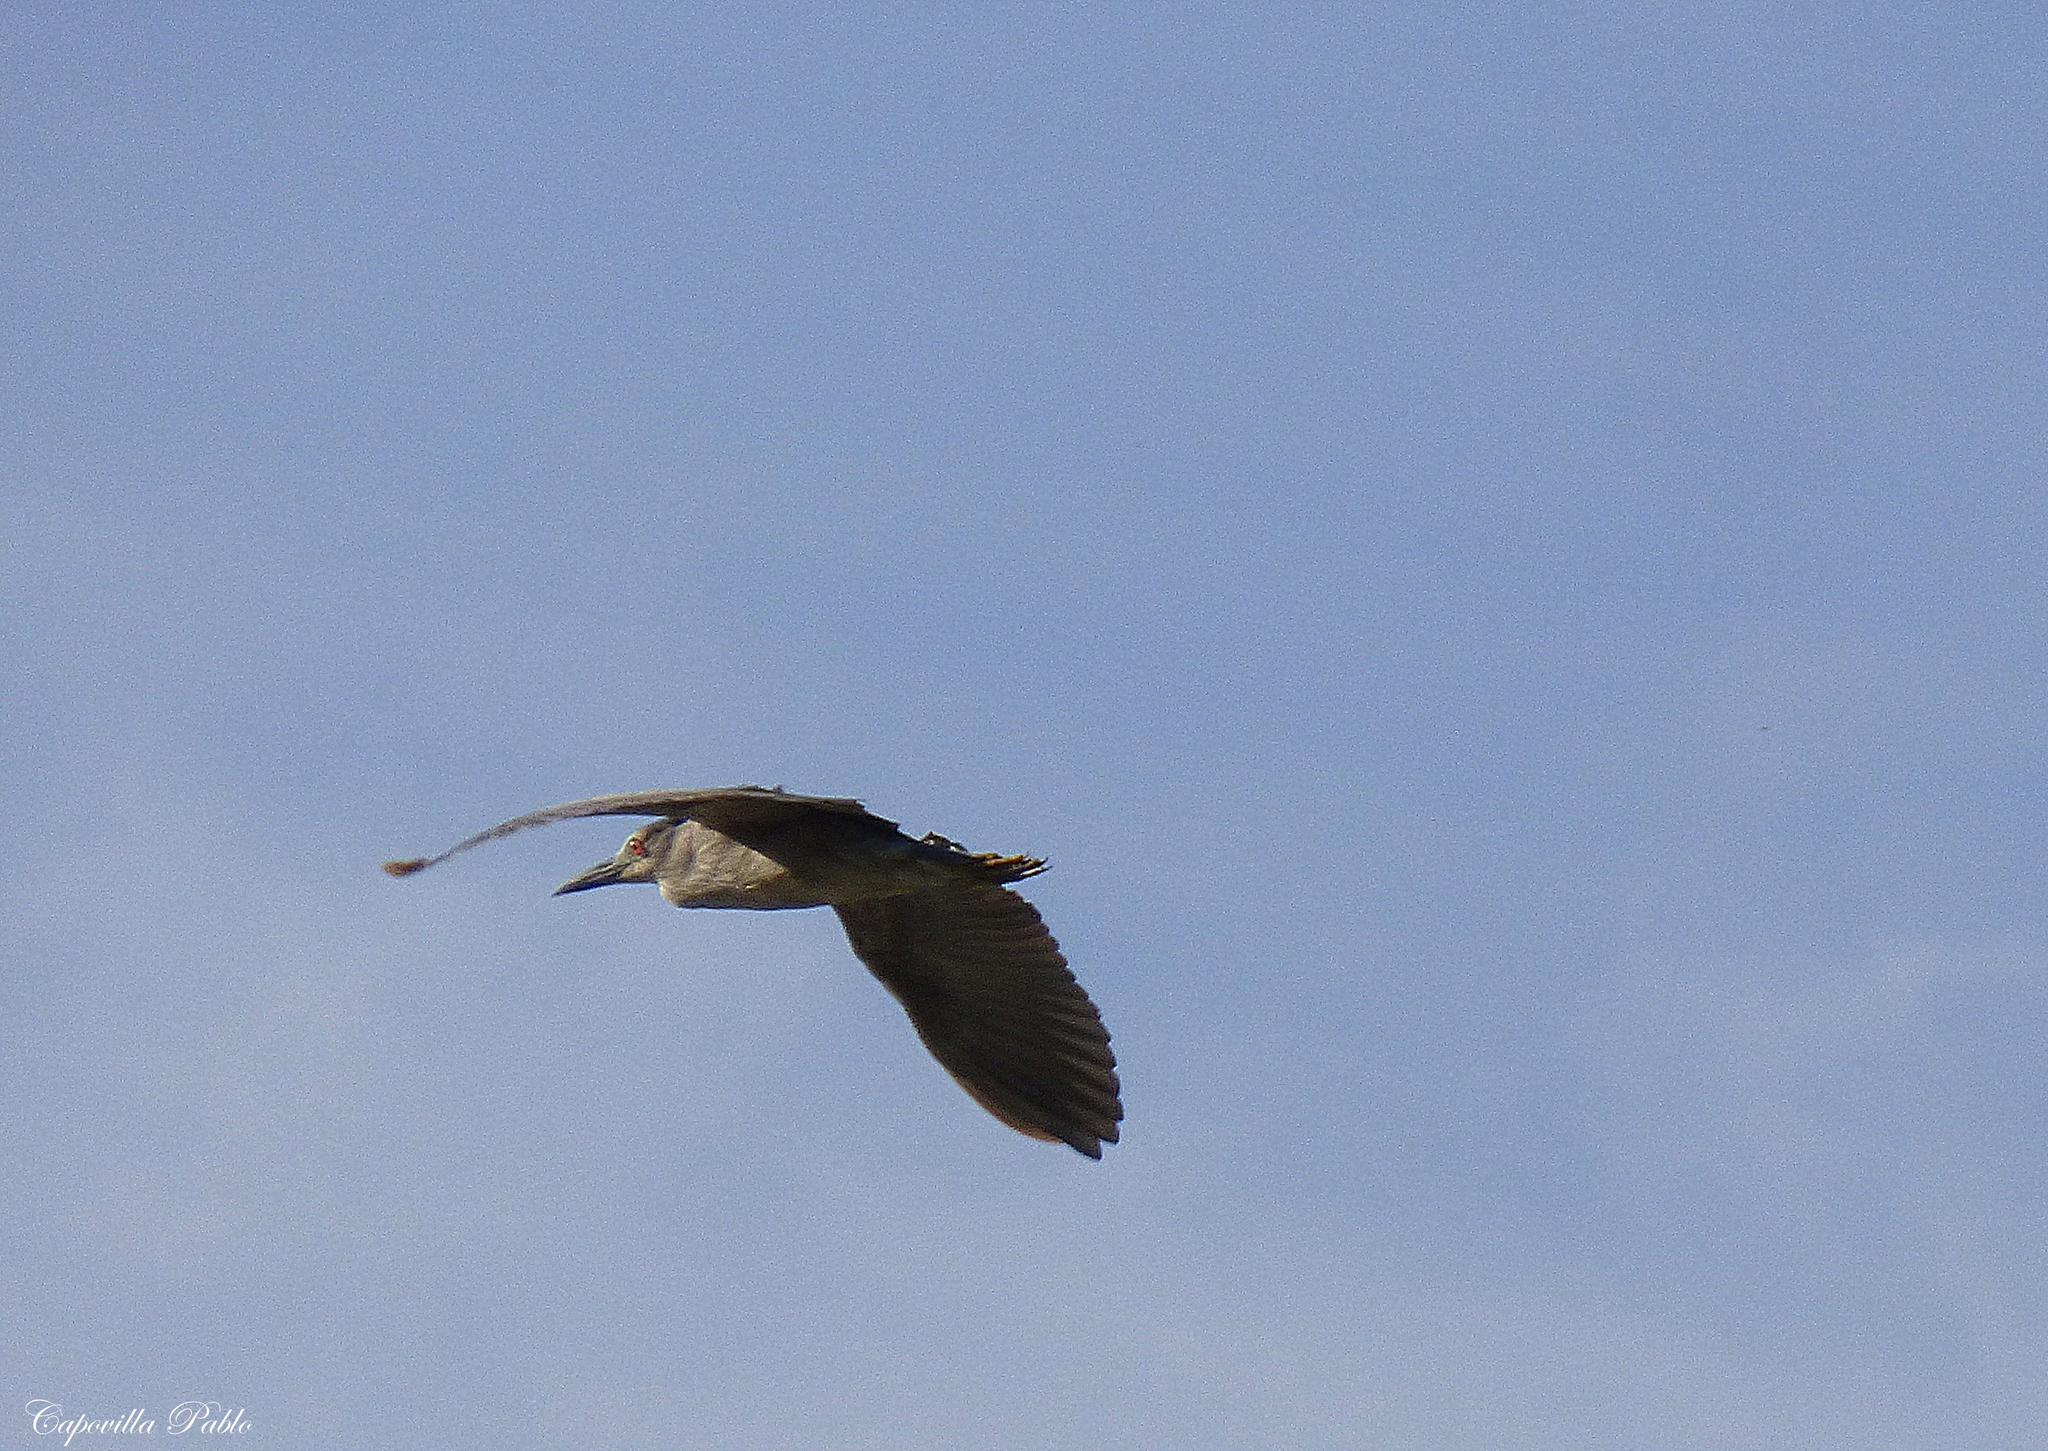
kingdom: Animalia
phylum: Chordata
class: Aves
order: Pelecaniformes
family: Ardeidae
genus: Nycticorax
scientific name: Nycticorax nycticorax
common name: Black-crowned night heron
